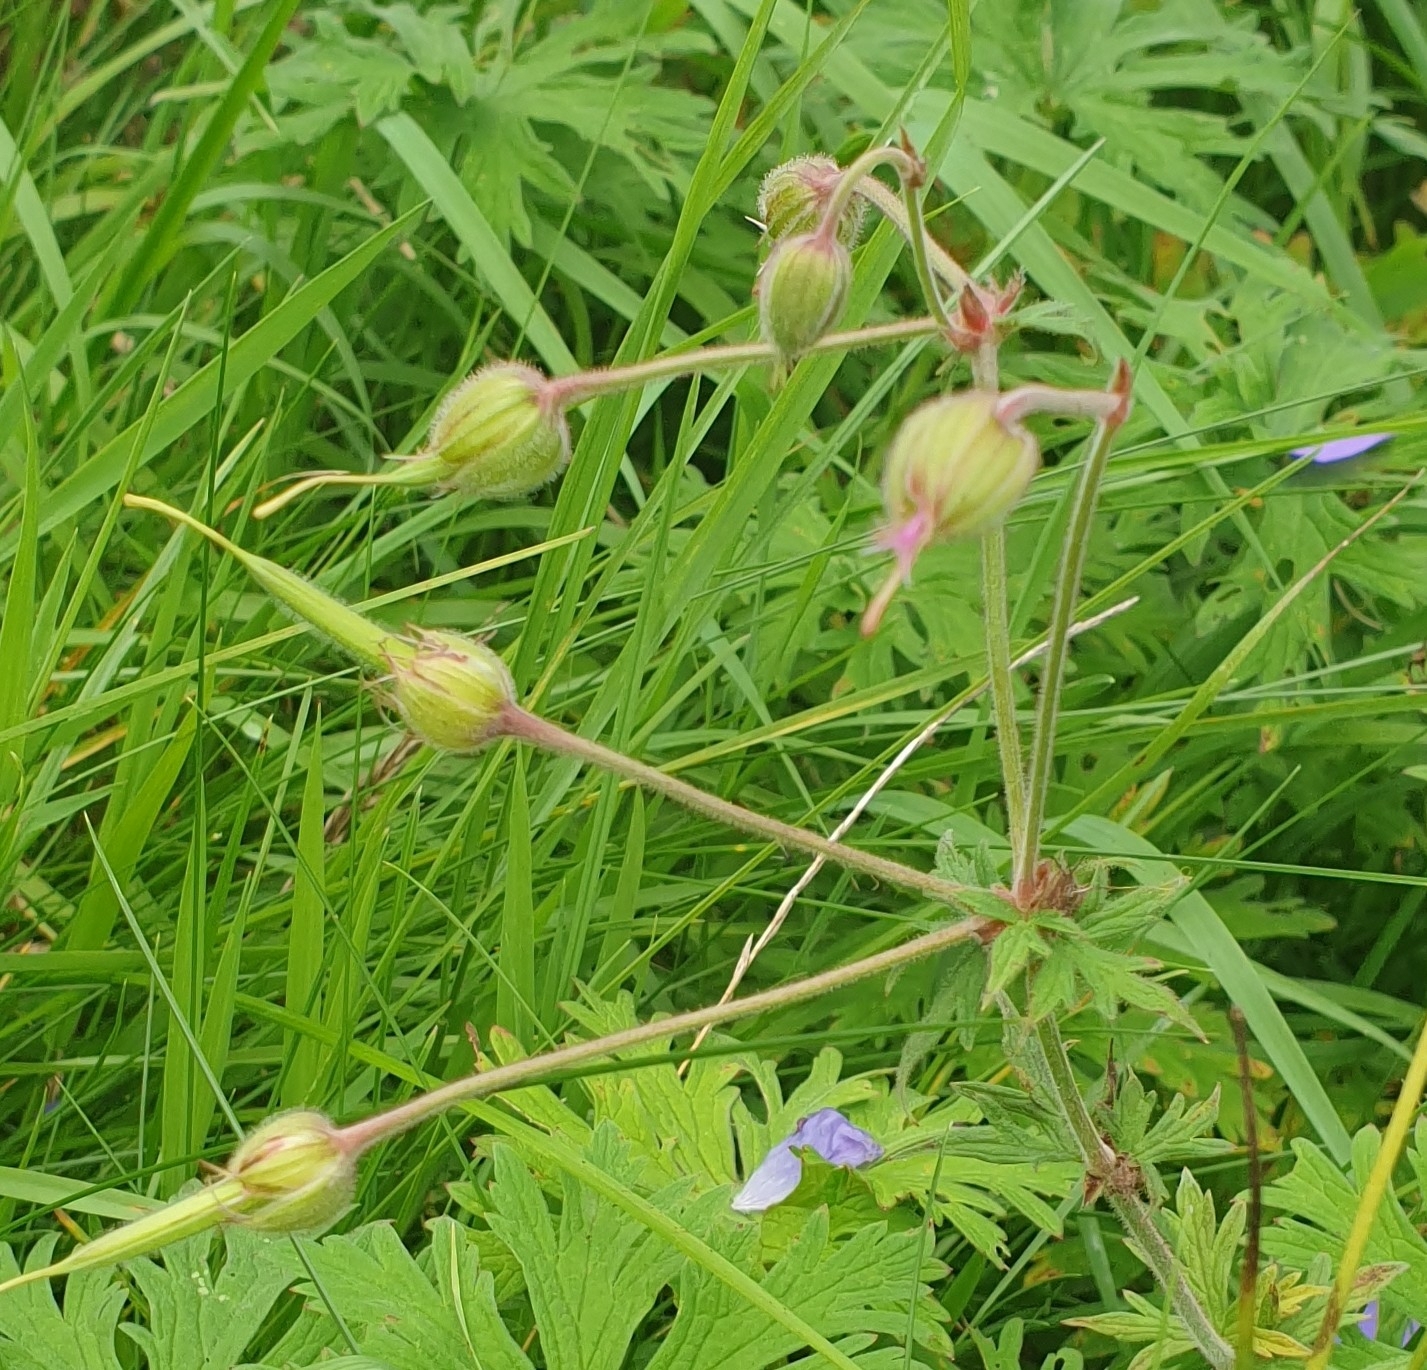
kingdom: Plantae
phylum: Tracheophyta
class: Magnoliopsida
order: Geraniales
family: Geraniaceae
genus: Geranium
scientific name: Geranium pratense
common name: Meadow crane's-bill
